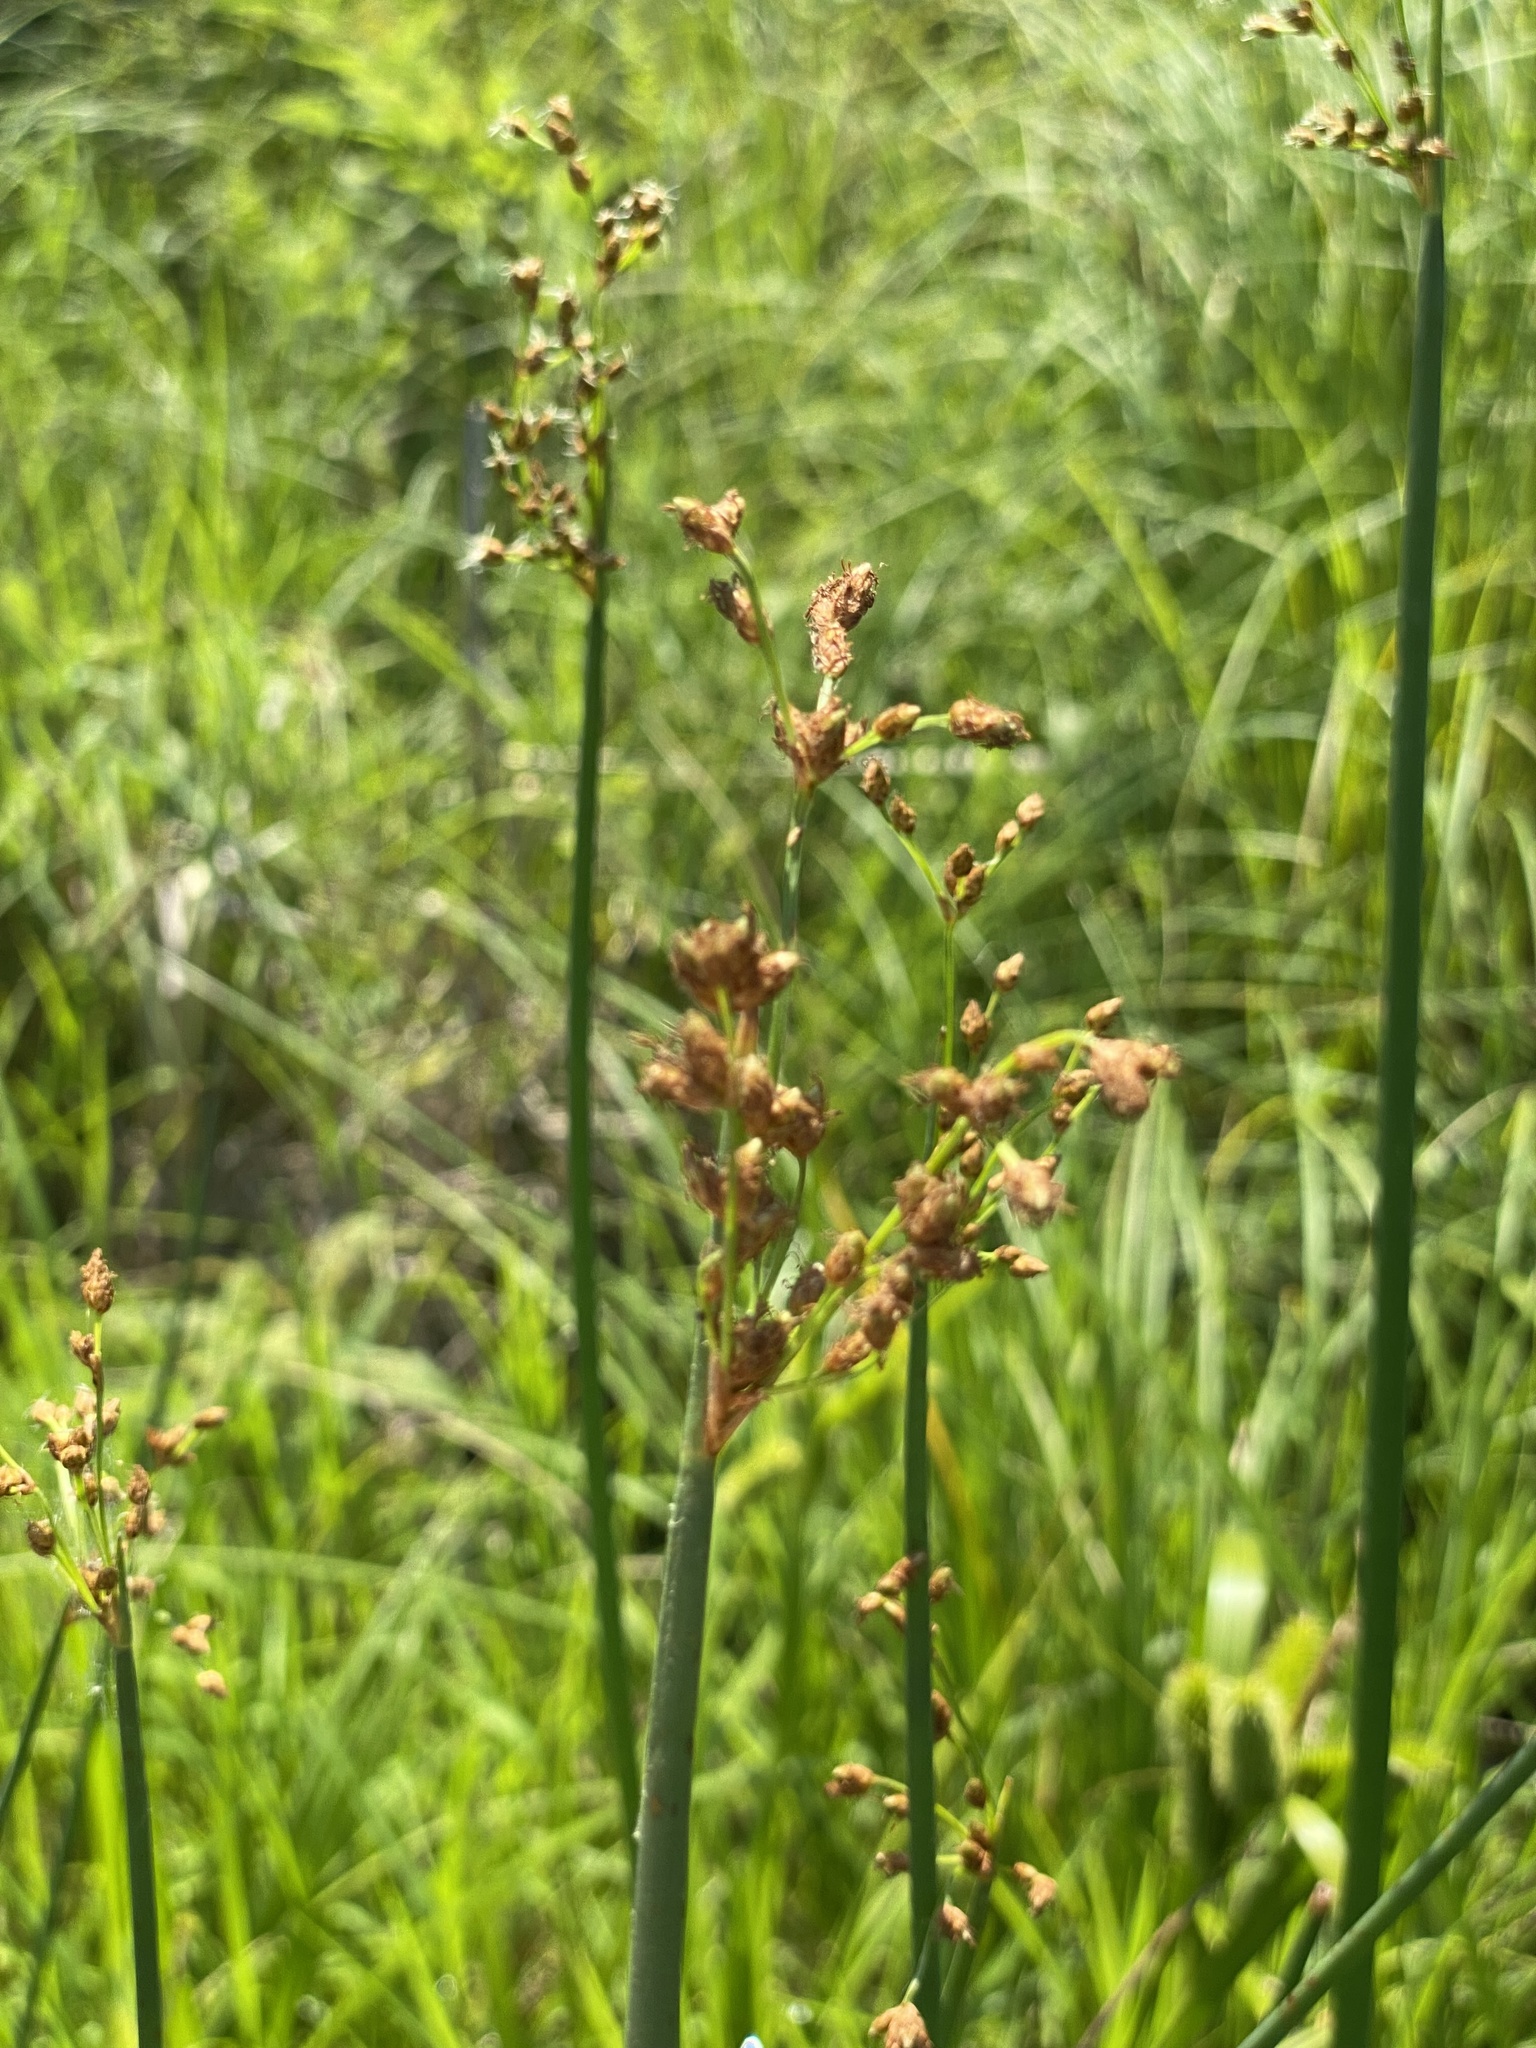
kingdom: Plantae
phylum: Tracheophyta
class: Liliopsida
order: Poales
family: Cyperaceae
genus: Schoenoplectus
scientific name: Schoenoplectus tabernaemontani
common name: Grey club-rush
